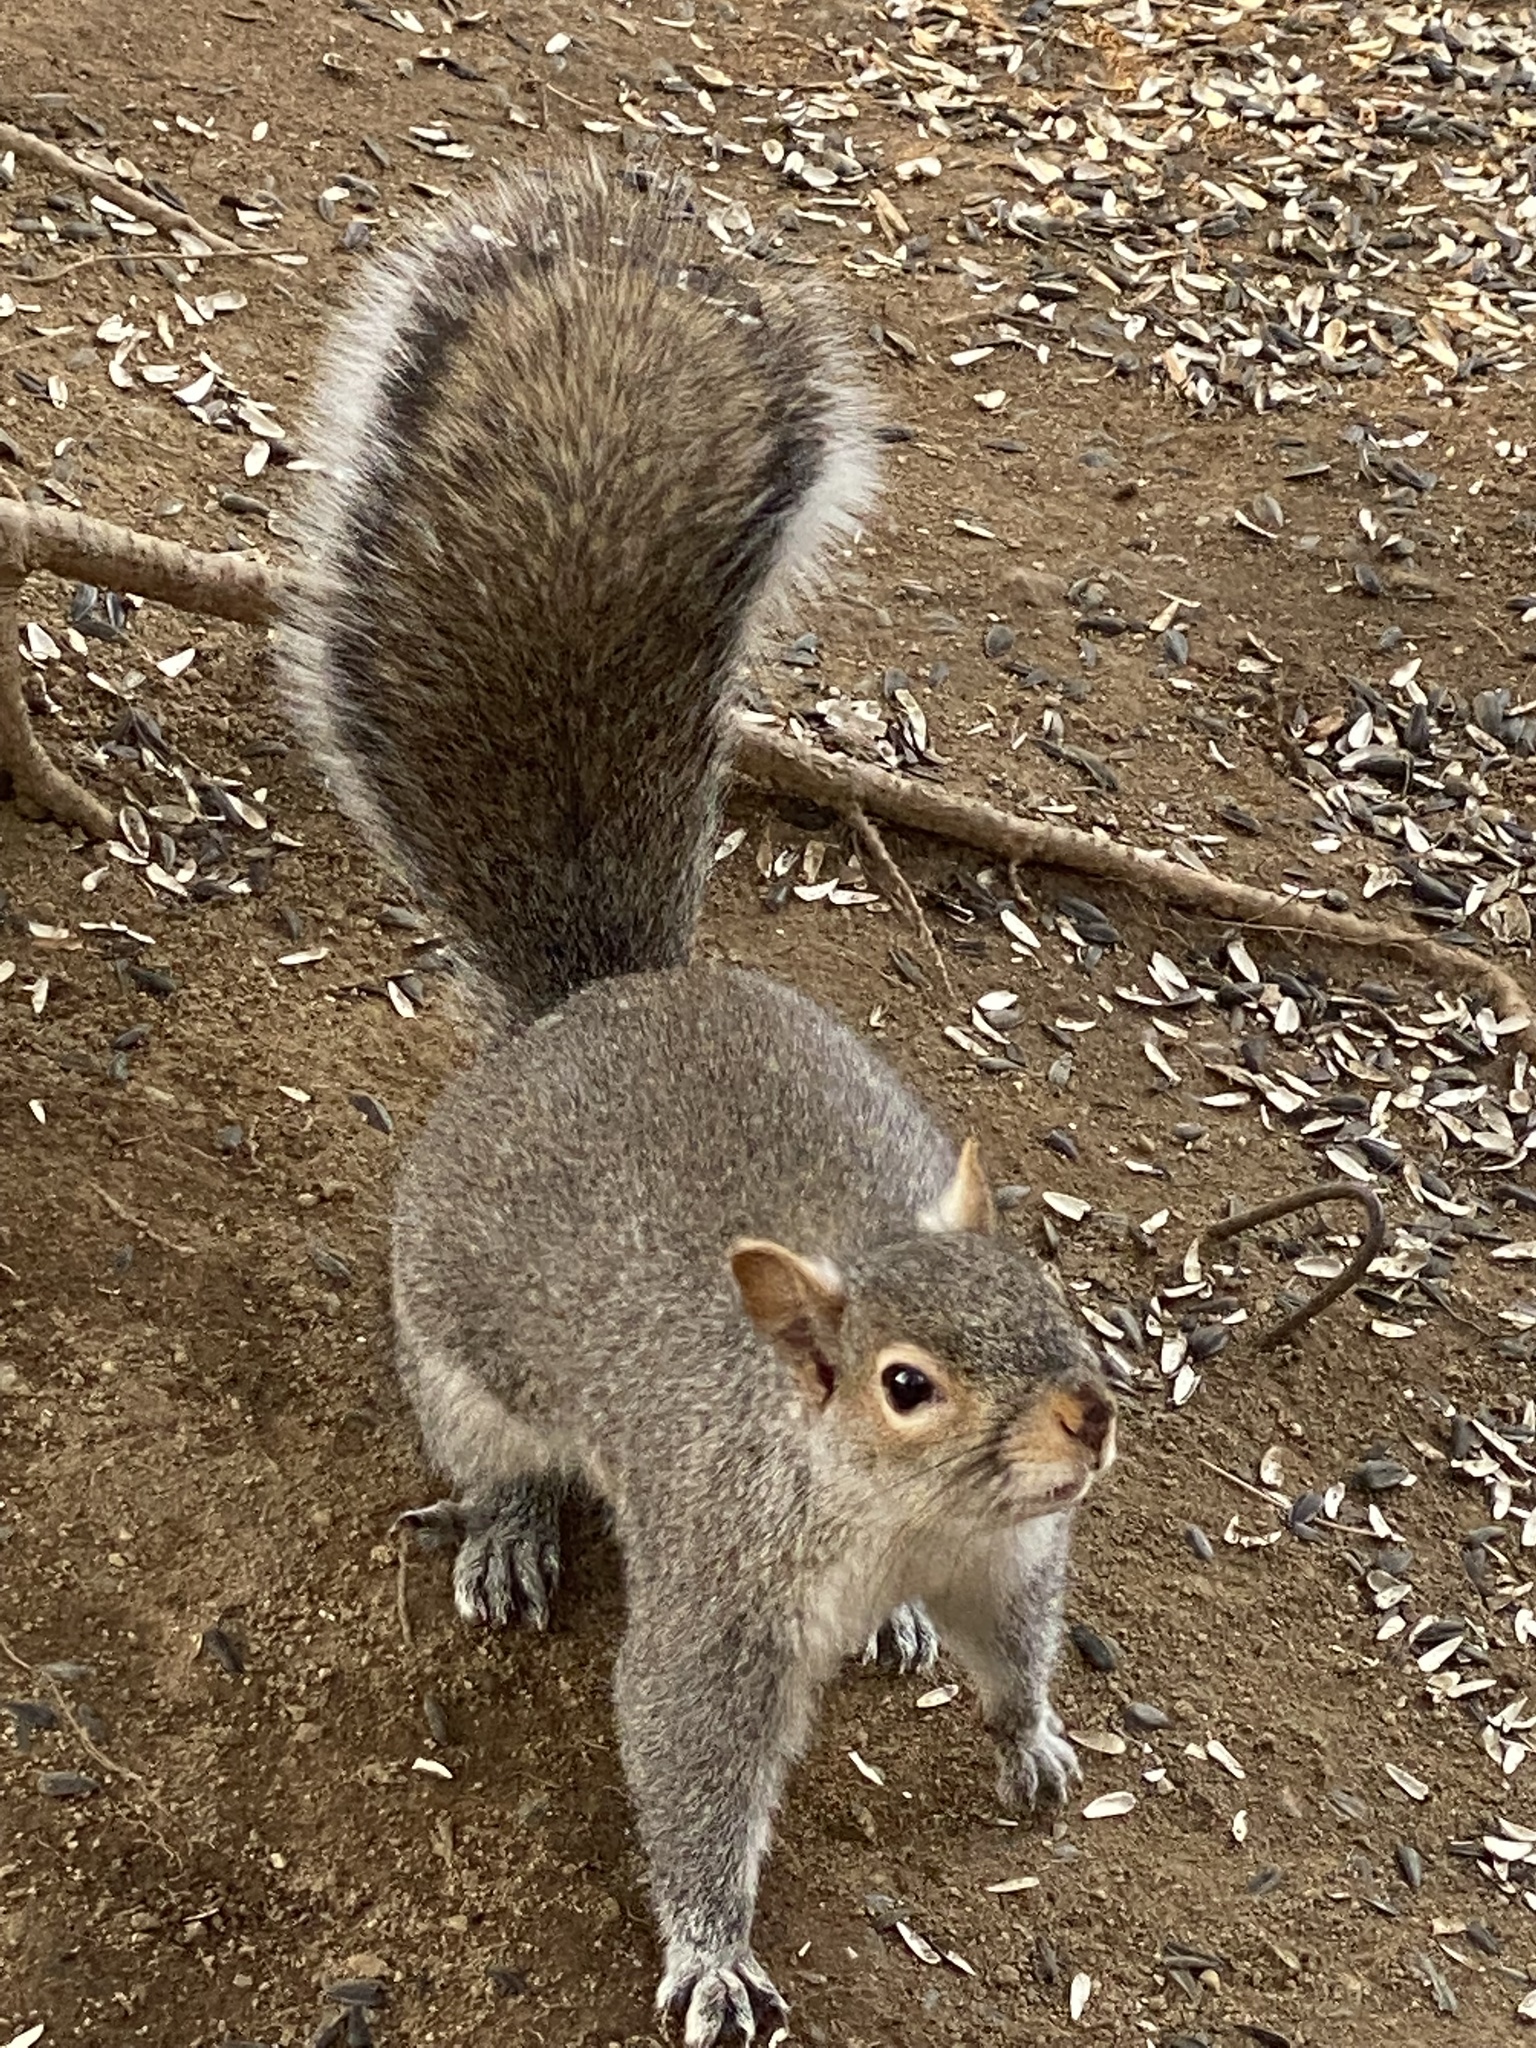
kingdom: Animalia
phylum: Chordata
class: Mammalia
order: Rodentia
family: Sciuridae
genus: Sciurus
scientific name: Sciurus carolinensis
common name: Eastern gray squirrel
